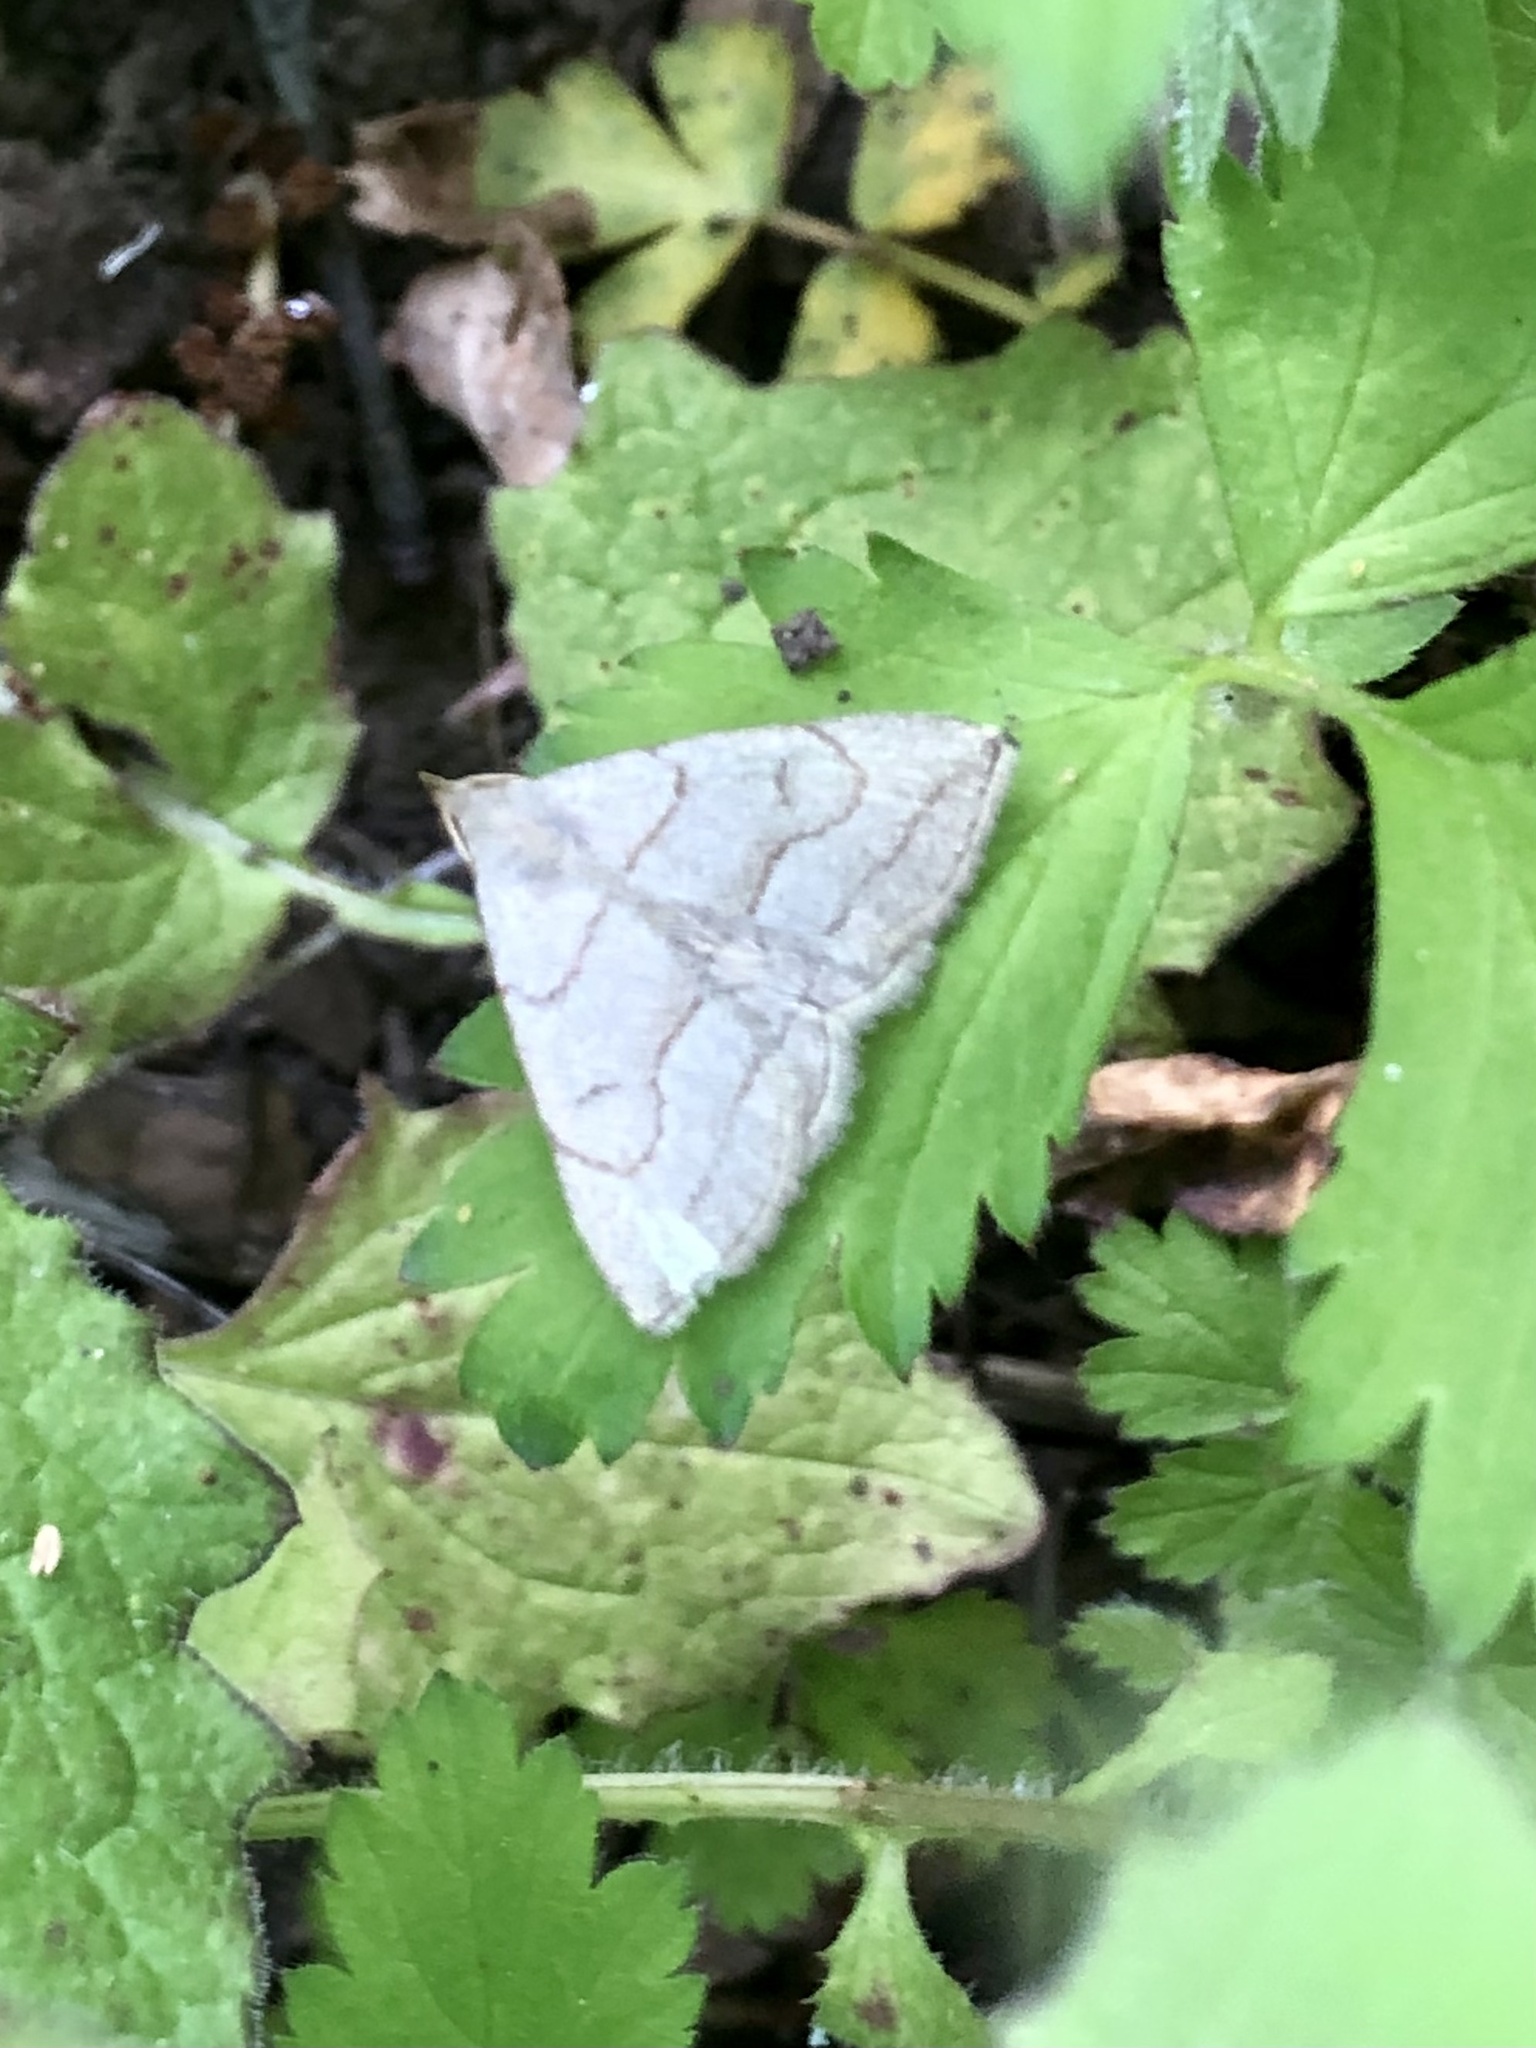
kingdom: Animalia
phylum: Arthropoda
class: Insecta
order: Lepidoptera
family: Erebidae
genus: Zanclognatha
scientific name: Zanclognatha pedipilalis
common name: Grayish fan-foot
